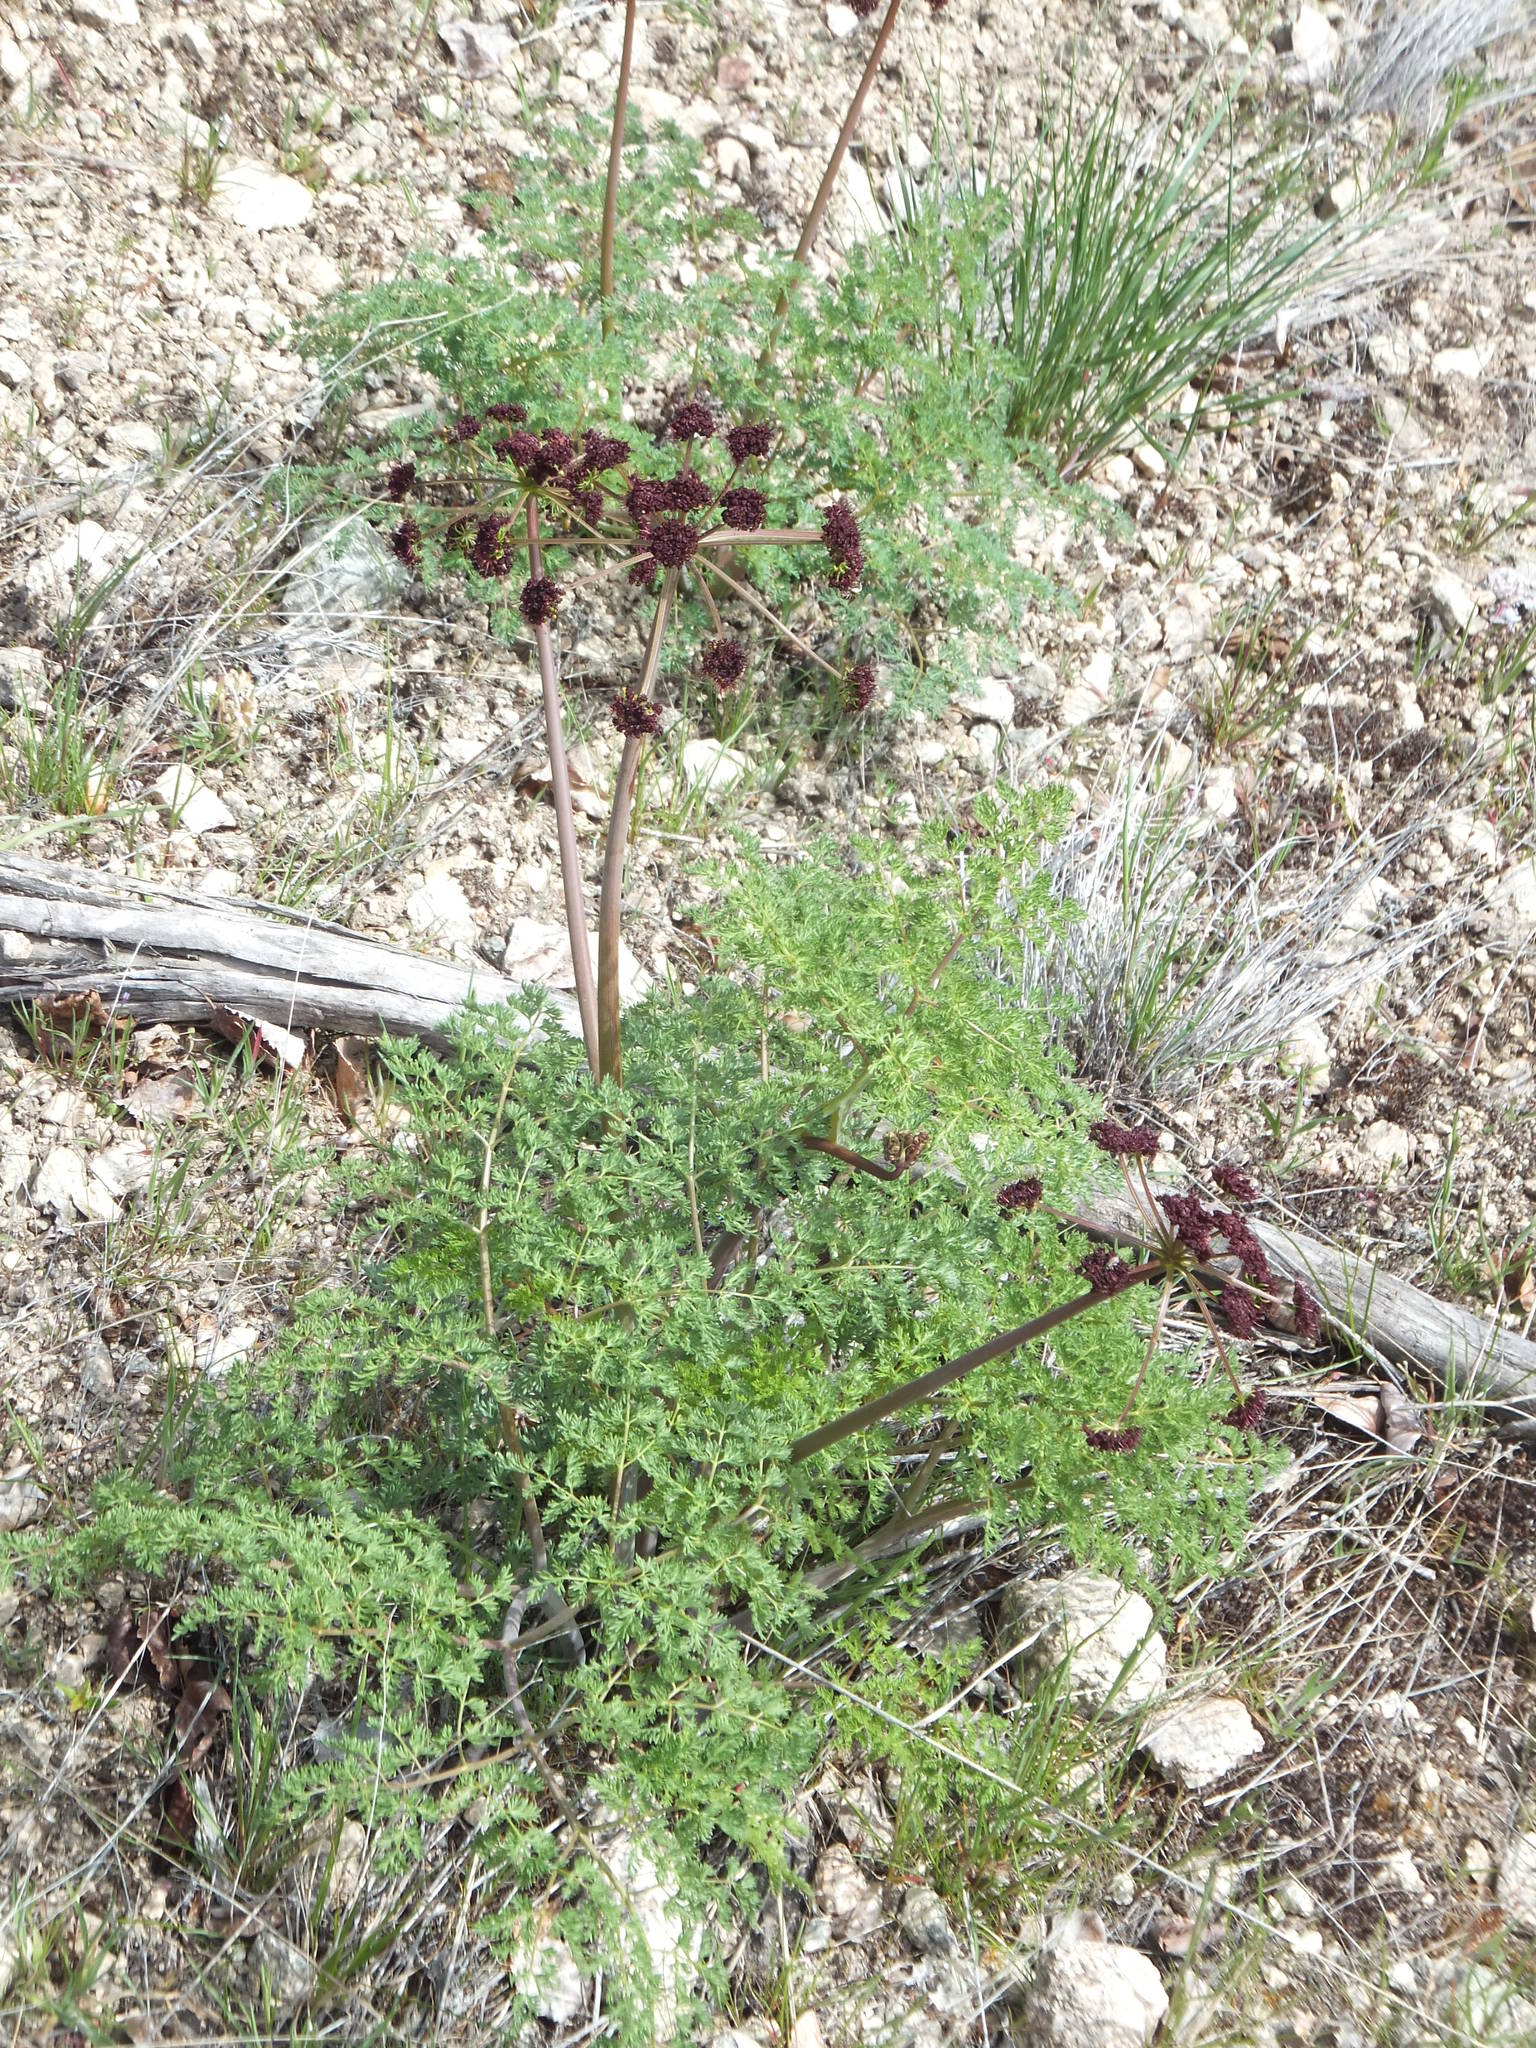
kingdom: Plantae
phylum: Tracheophyta
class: Magnoliopsida
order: Apiales
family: Apiaceae
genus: Lomatium
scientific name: Lomatium multifidum
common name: Carrot-leaved biscuitroot
